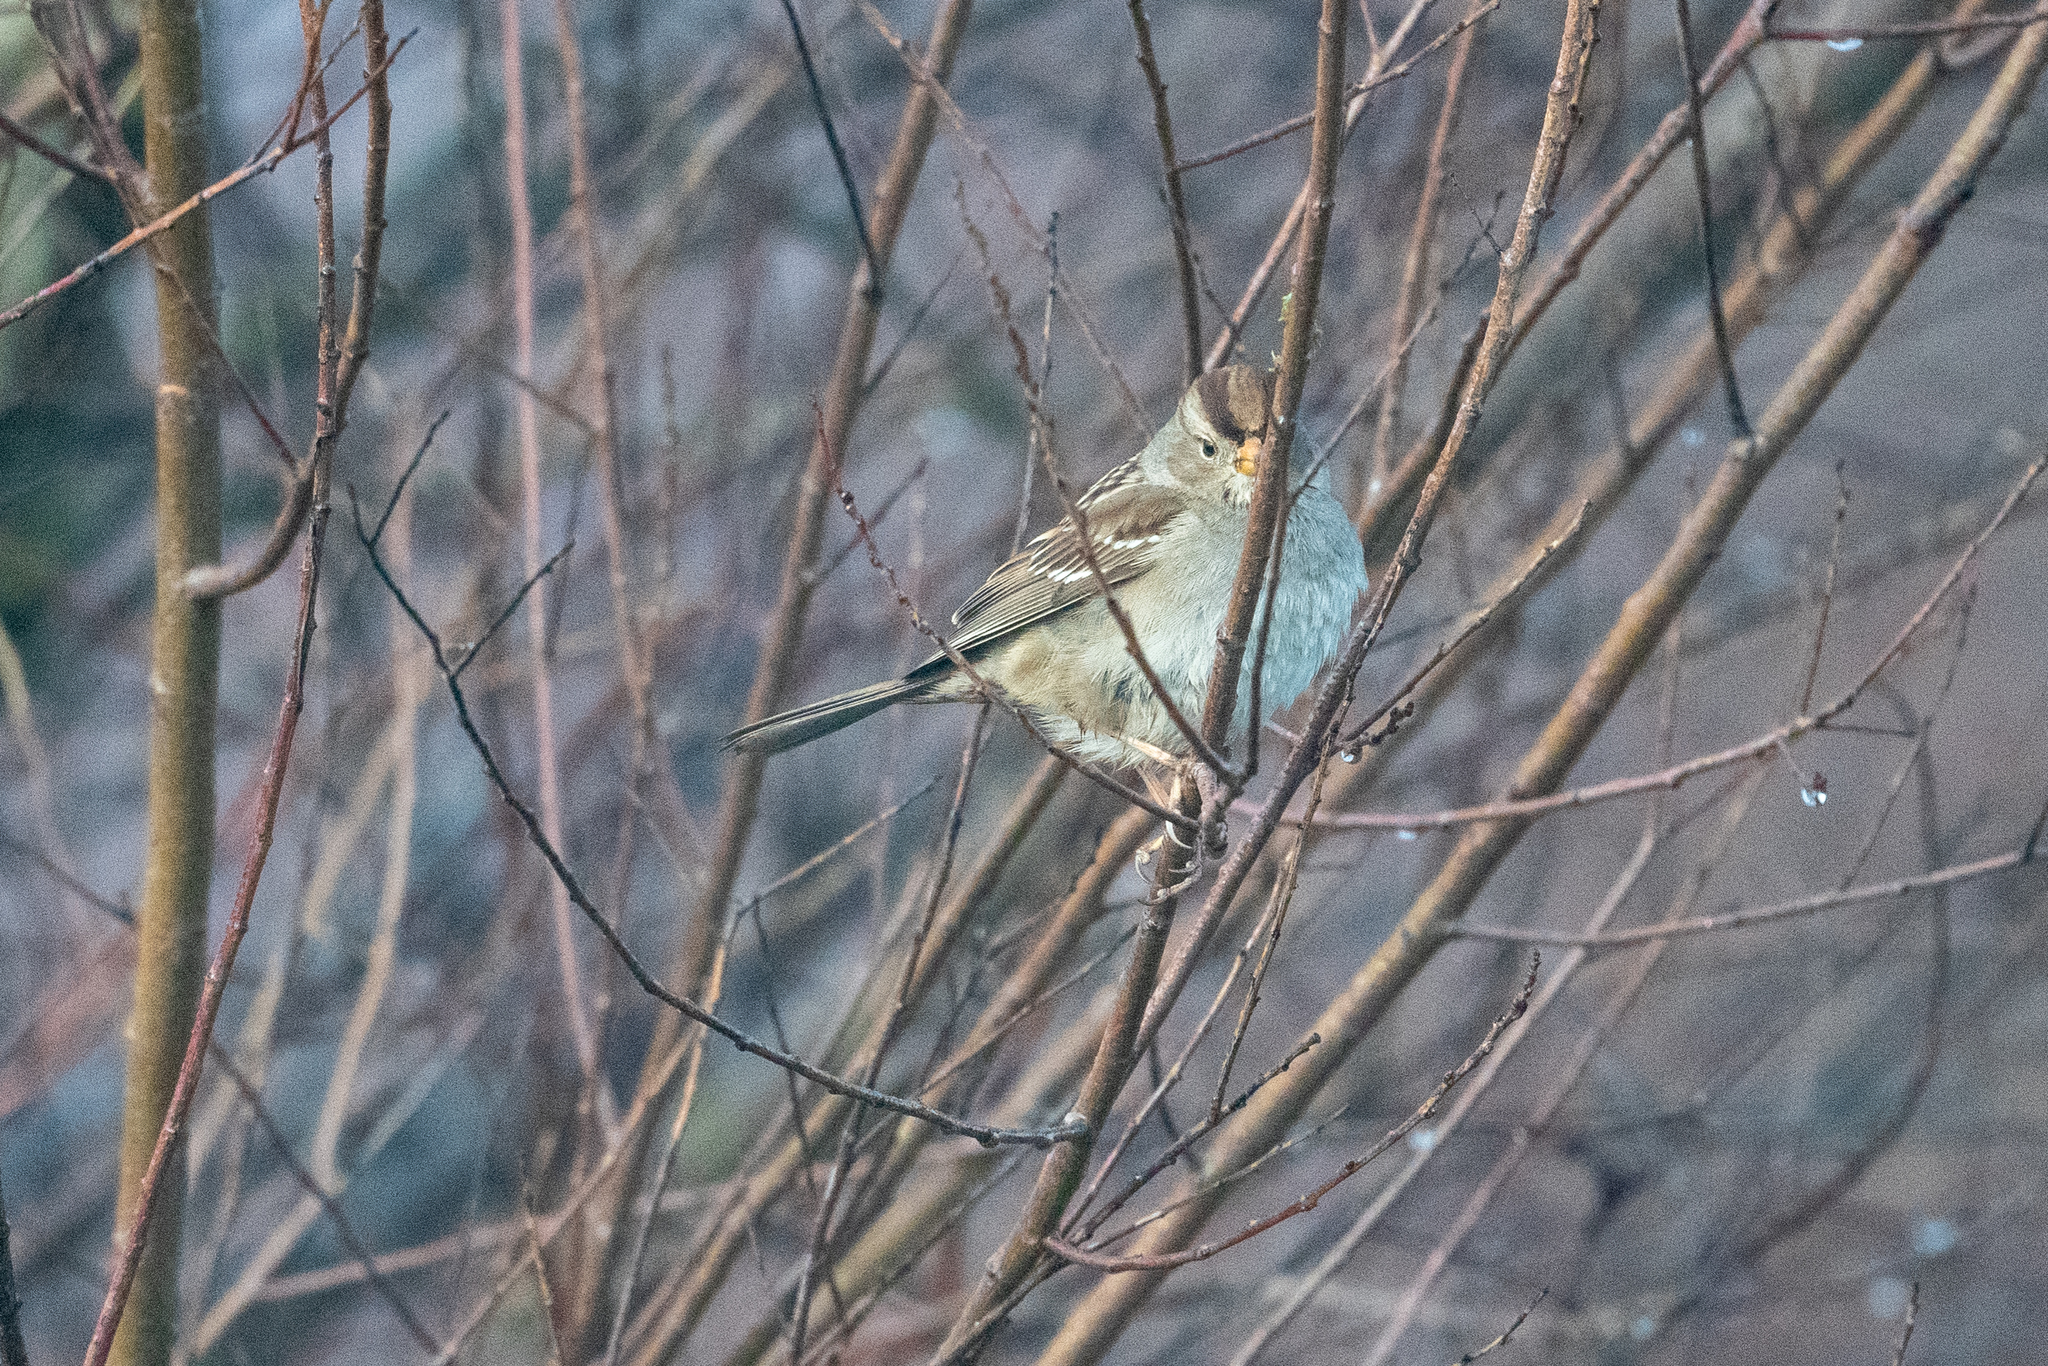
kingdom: Animalia
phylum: Chordata
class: Aves
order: Passeriformes
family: Passerellidae
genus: Zonotrichia
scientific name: Zonotrichia leucophrys
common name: White-crowned sparrow
